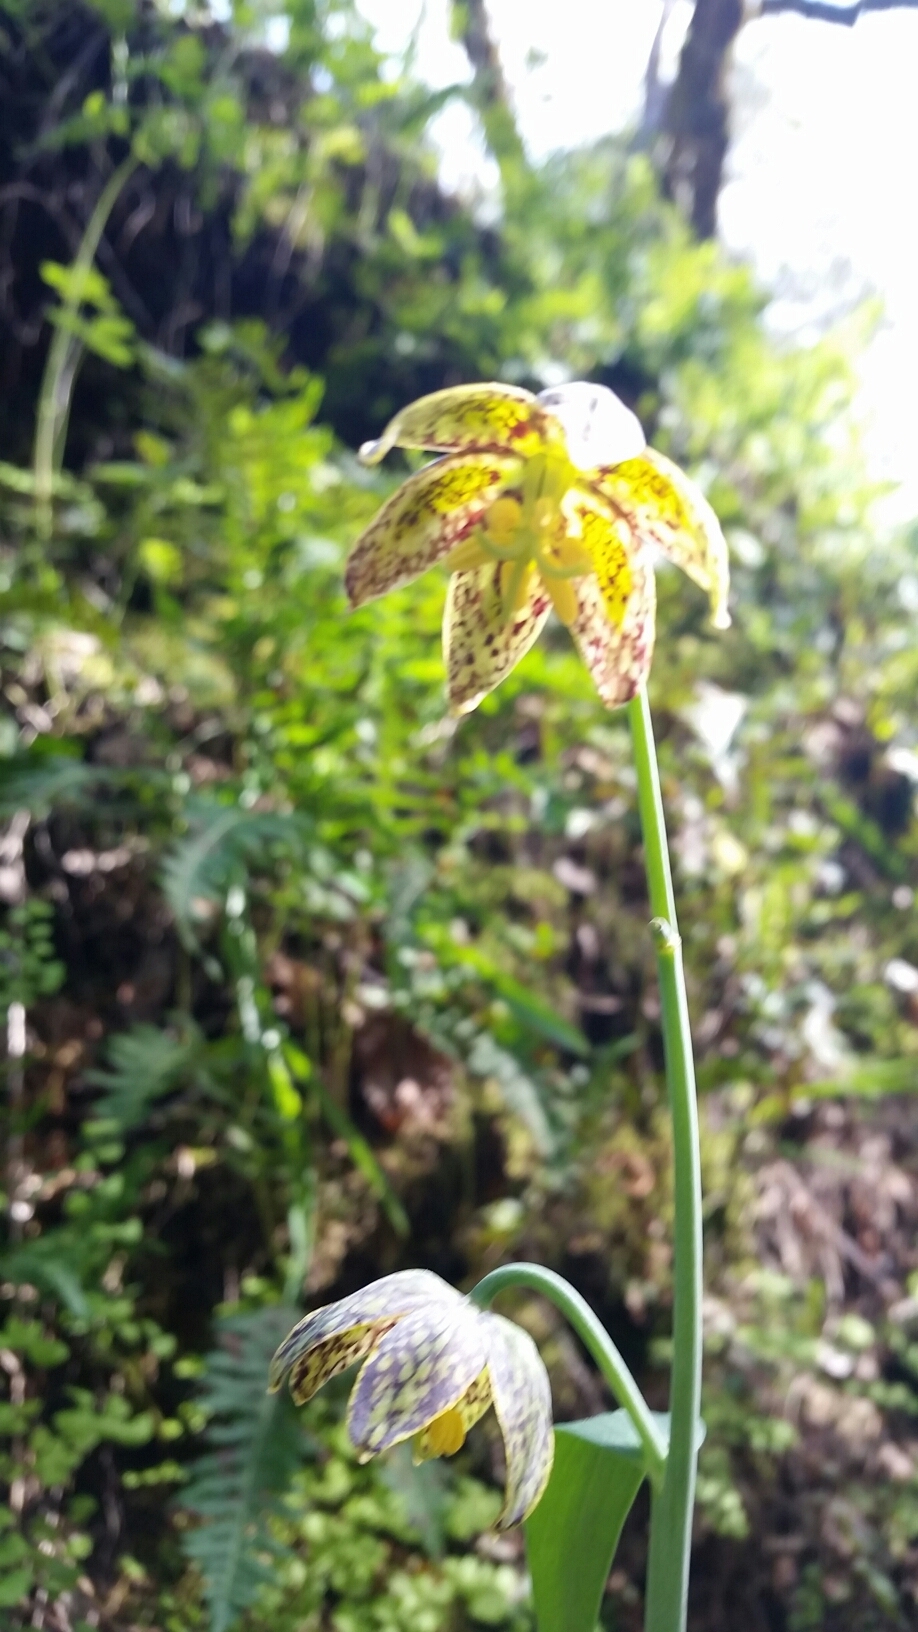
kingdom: Plantae
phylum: Tracheophyta
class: Liliopsida
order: Liliales
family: Liliaceae
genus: Fritillaria
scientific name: Fritillaria affinis
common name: Ojai fritillary
